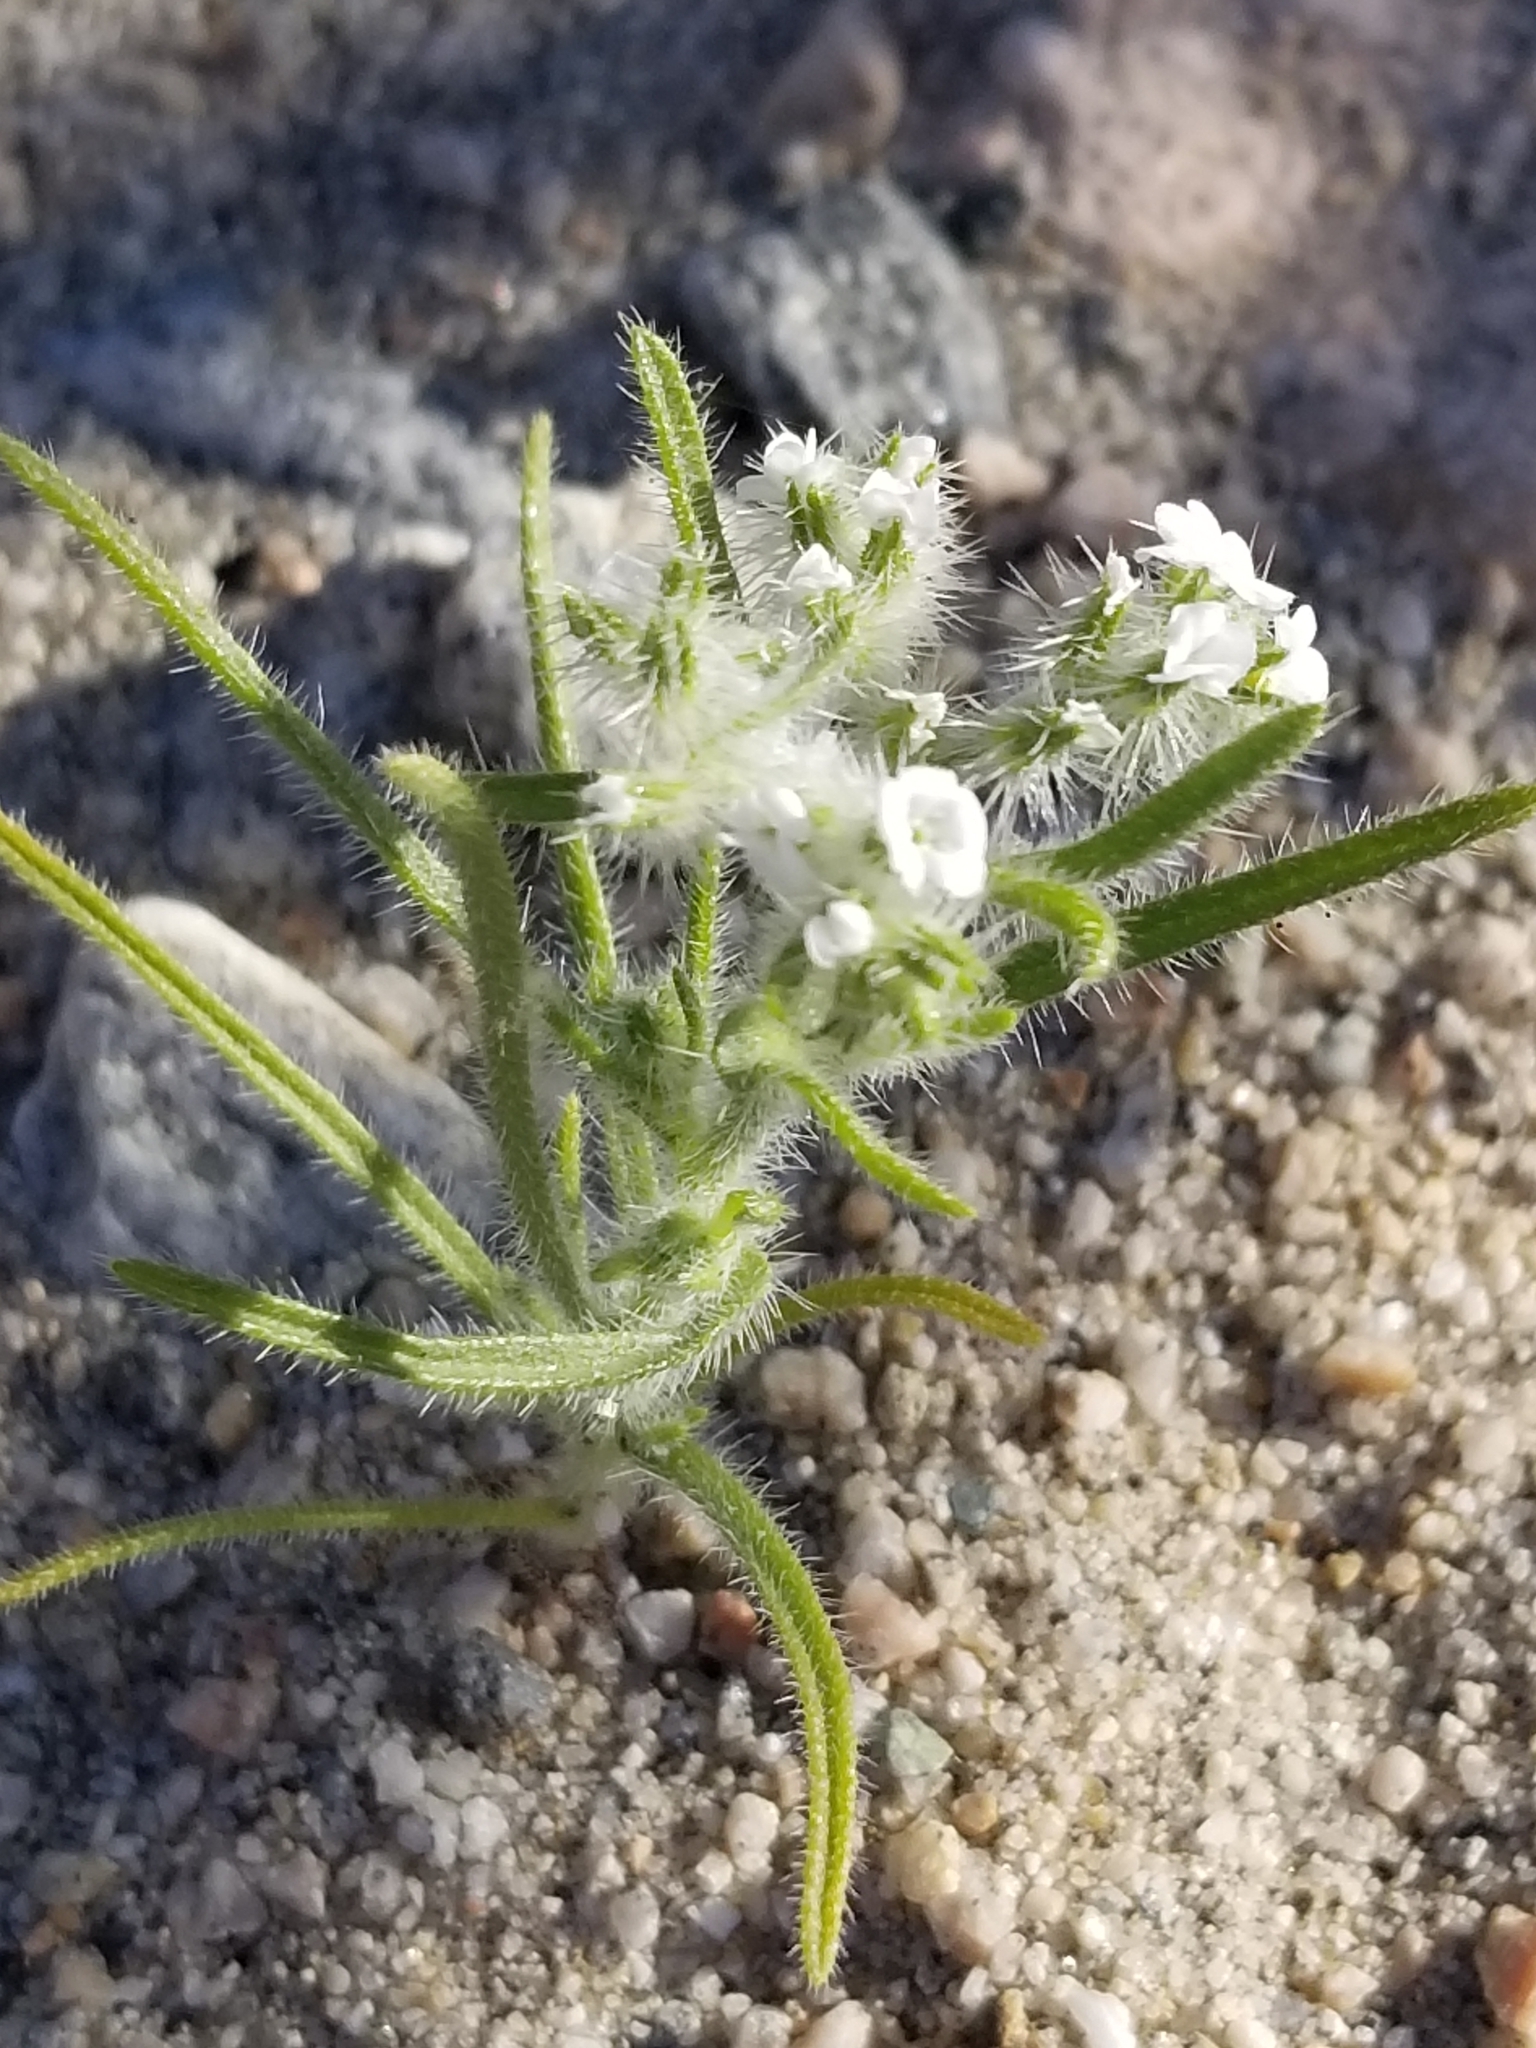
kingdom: Plantae
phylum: Tracheophyta
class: Magnoliopsida
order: Boraginales
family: Boraginaceae
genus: Johnstonella
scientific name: Johnstonella angustifolia
